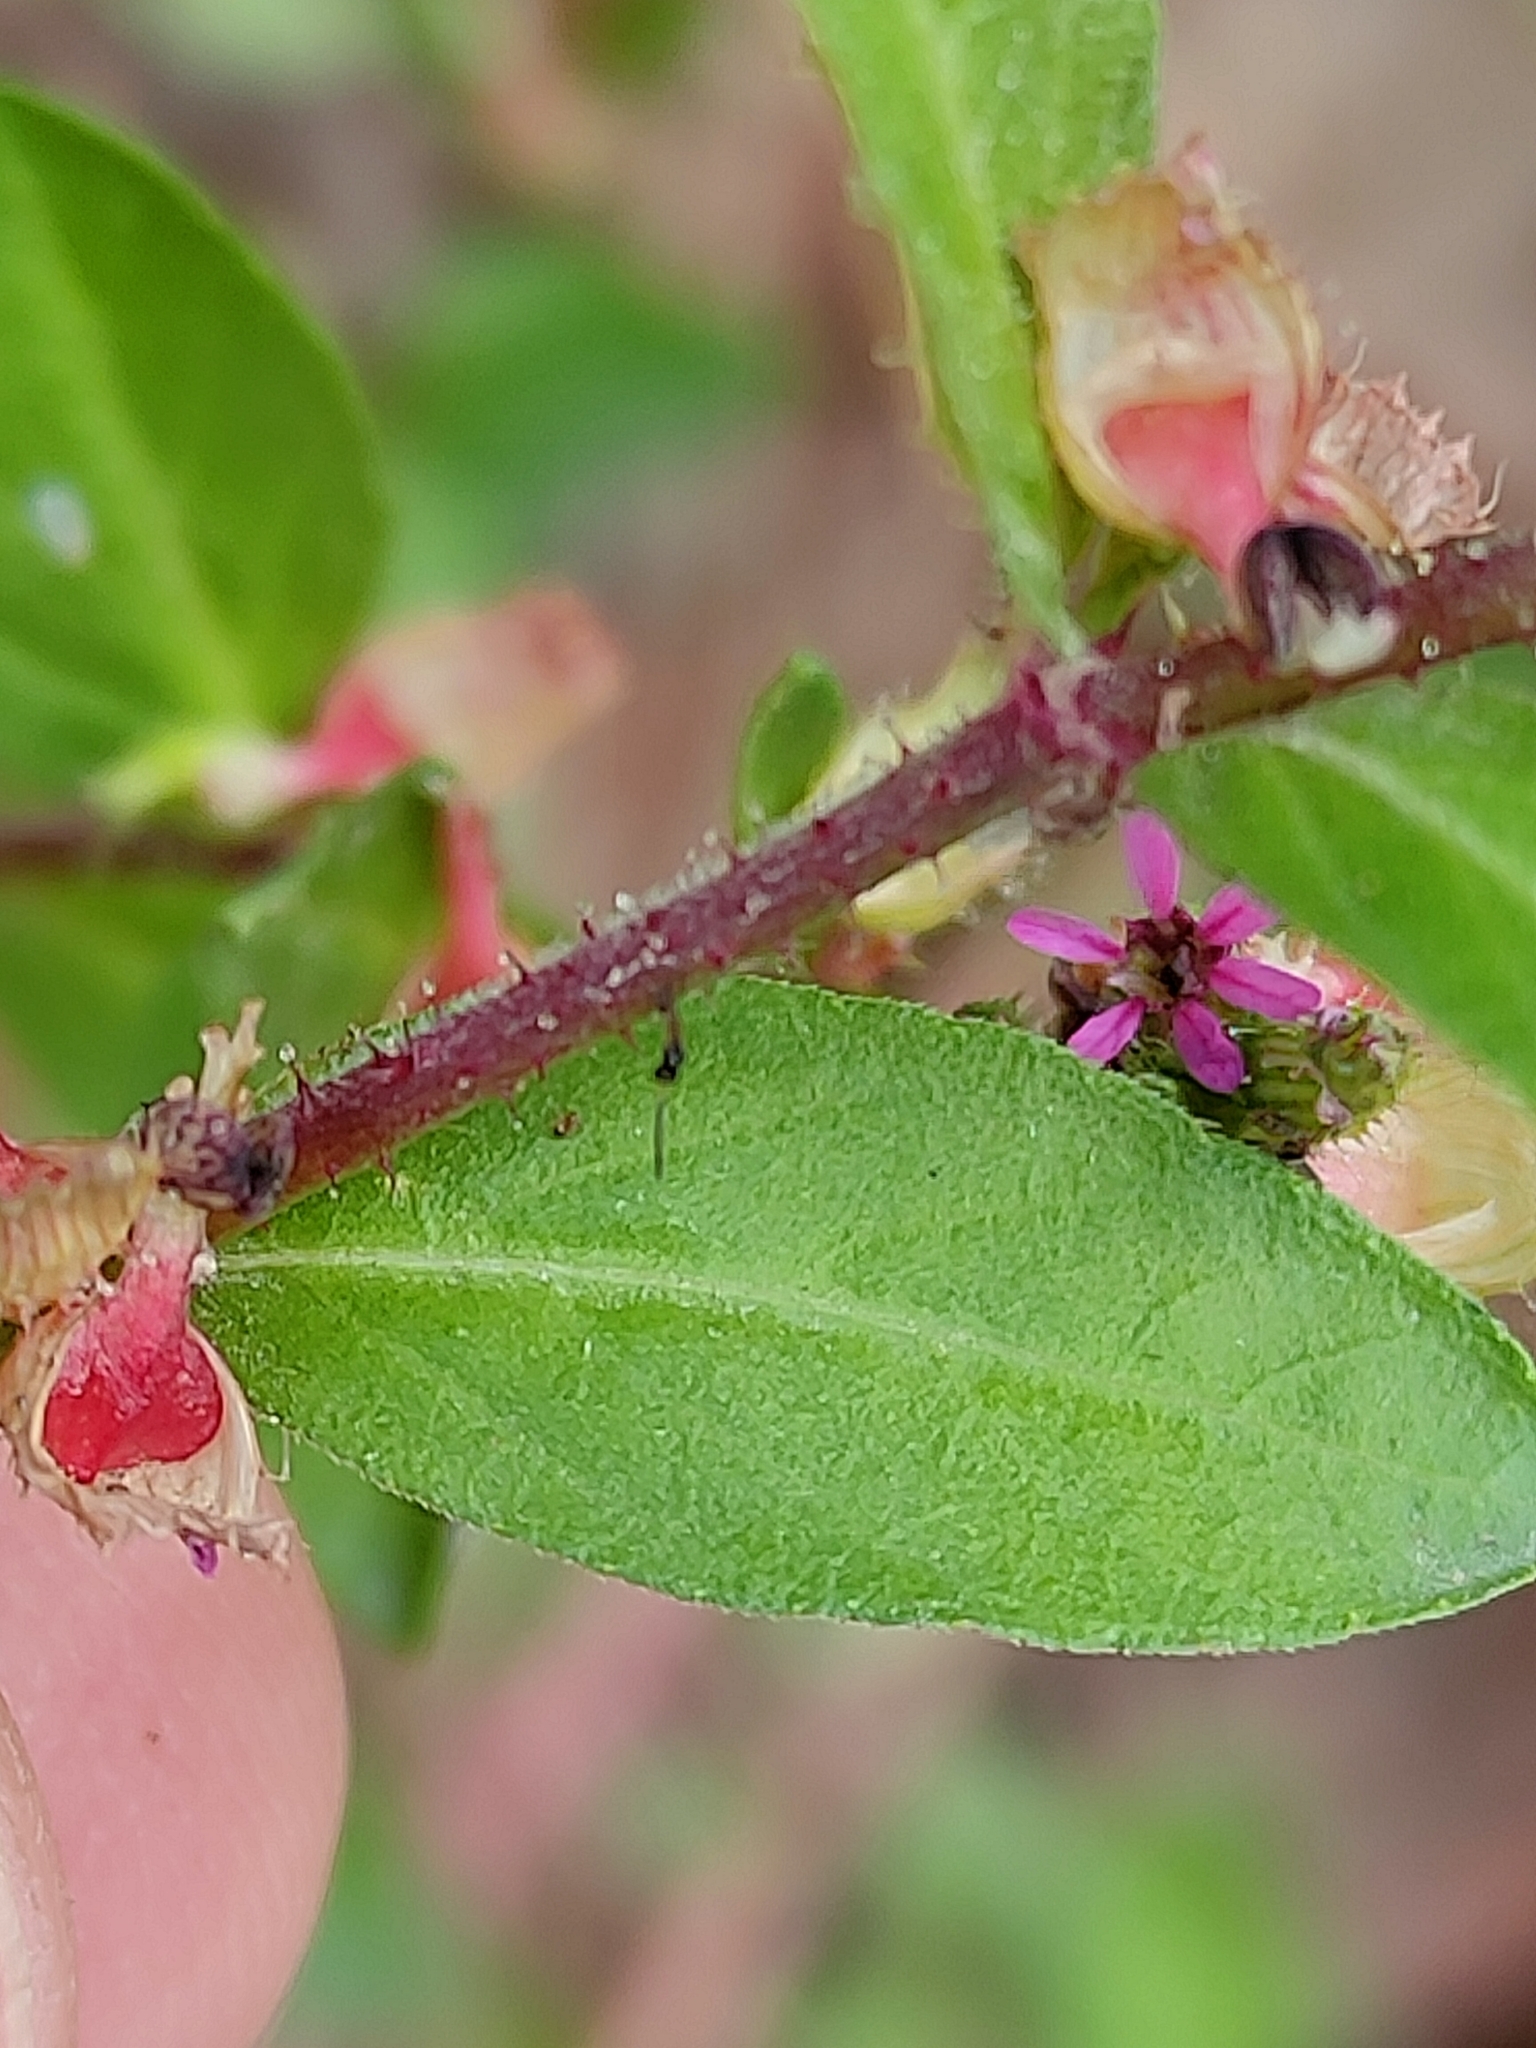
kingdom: Plantae
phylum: Tracheophyta
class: Magnoliopsida
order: Myrtales
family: Lythraceae
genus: Cuphea
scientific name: Cuphea carthagenensis
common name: Colombian waxweed
